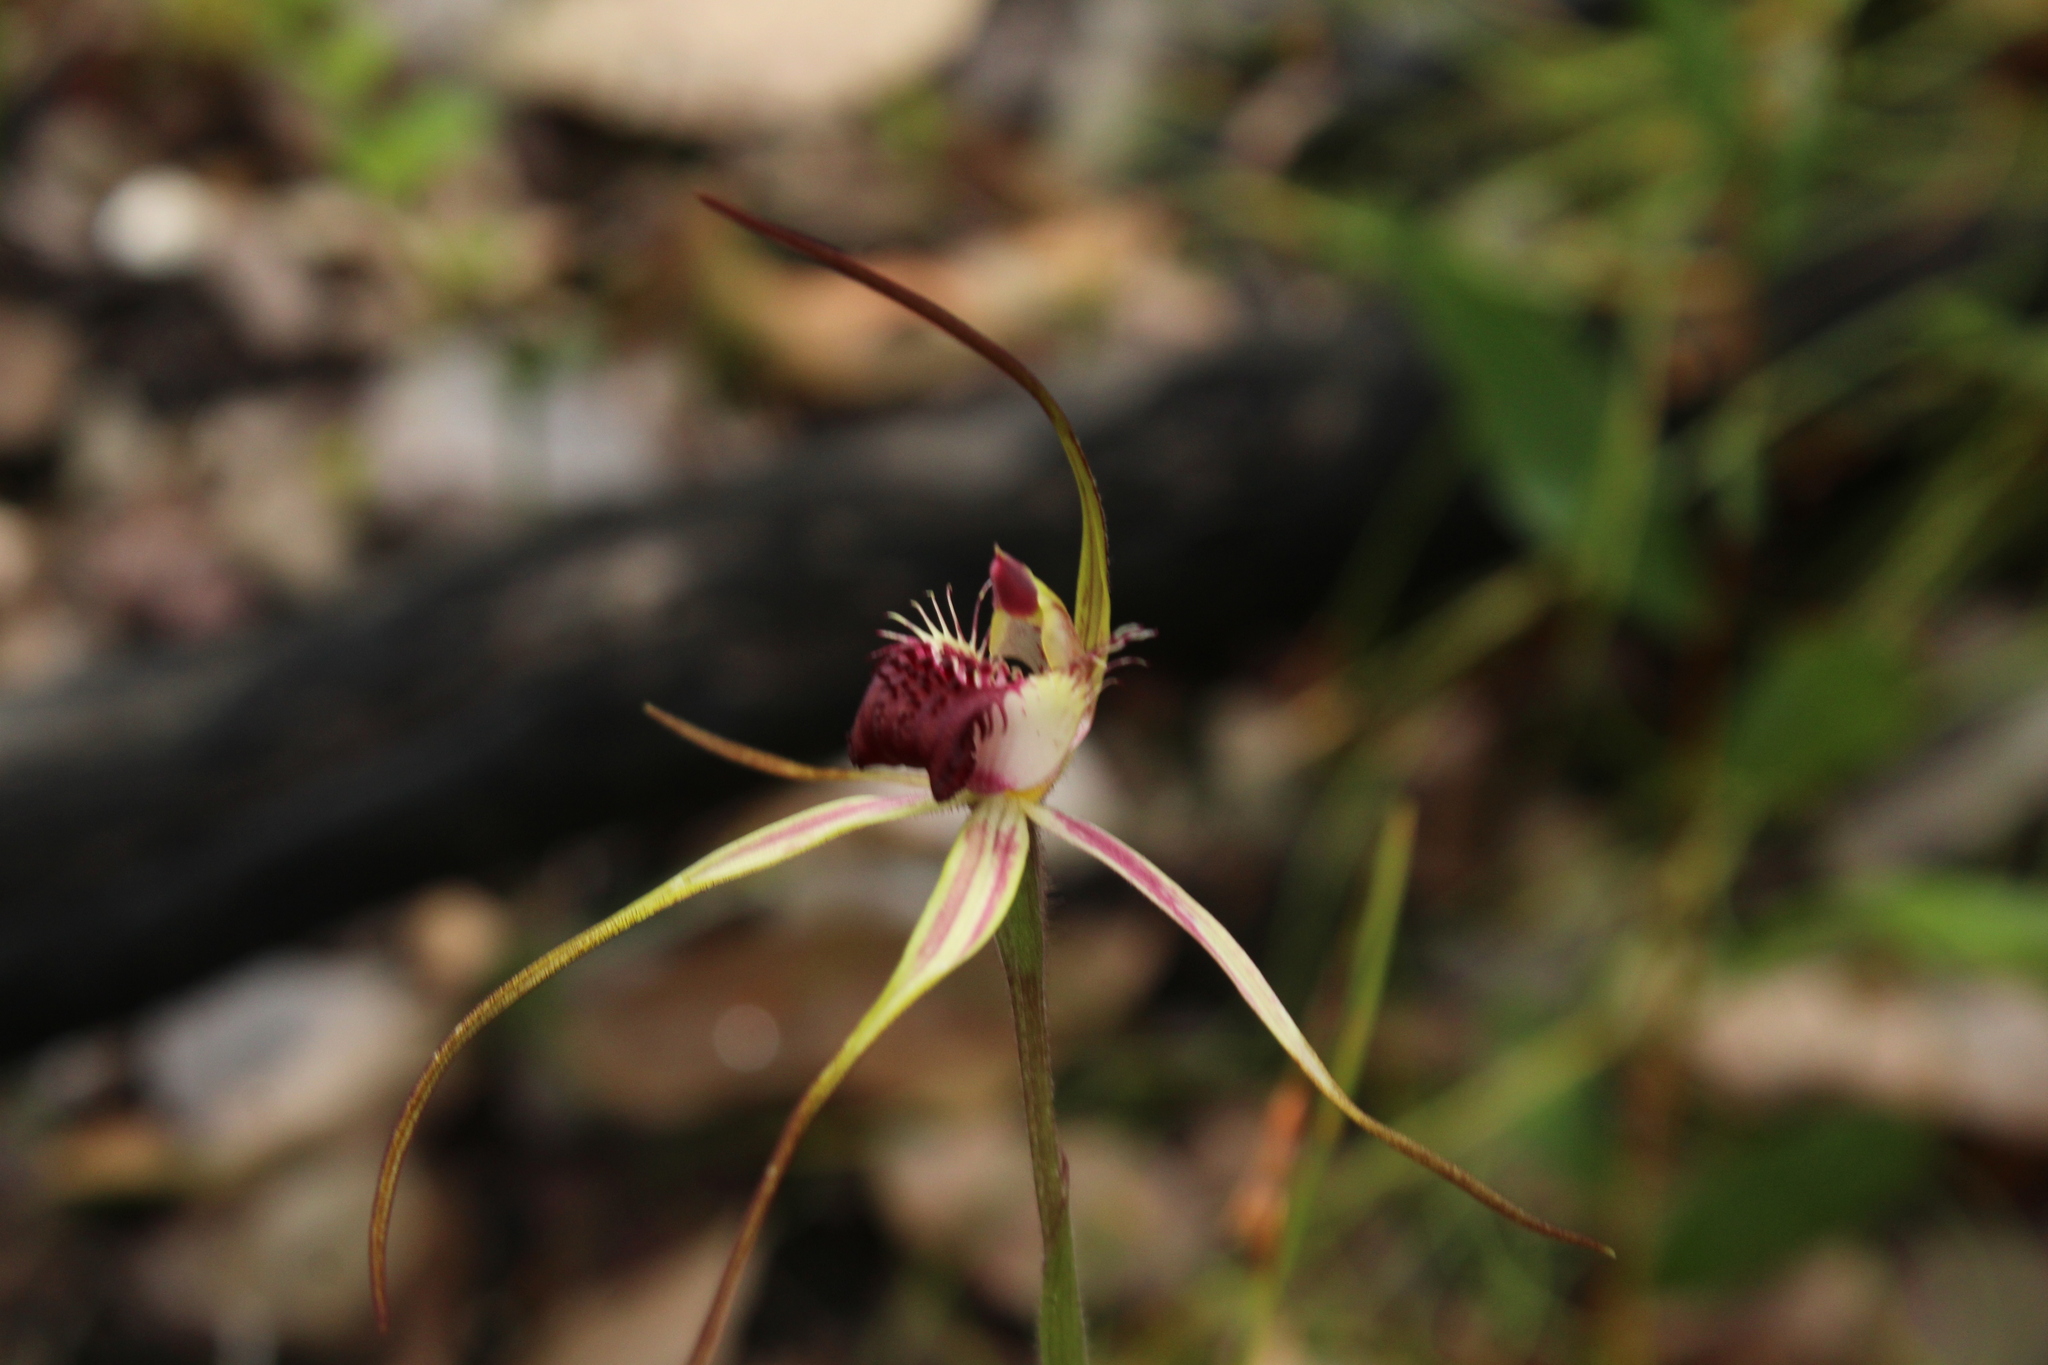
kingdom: Plantae
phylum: Tracheophyta
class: Liliopsida
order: Asparagales
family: Orchidaceae
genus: Caladenia
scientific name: Caladenia heberleana
